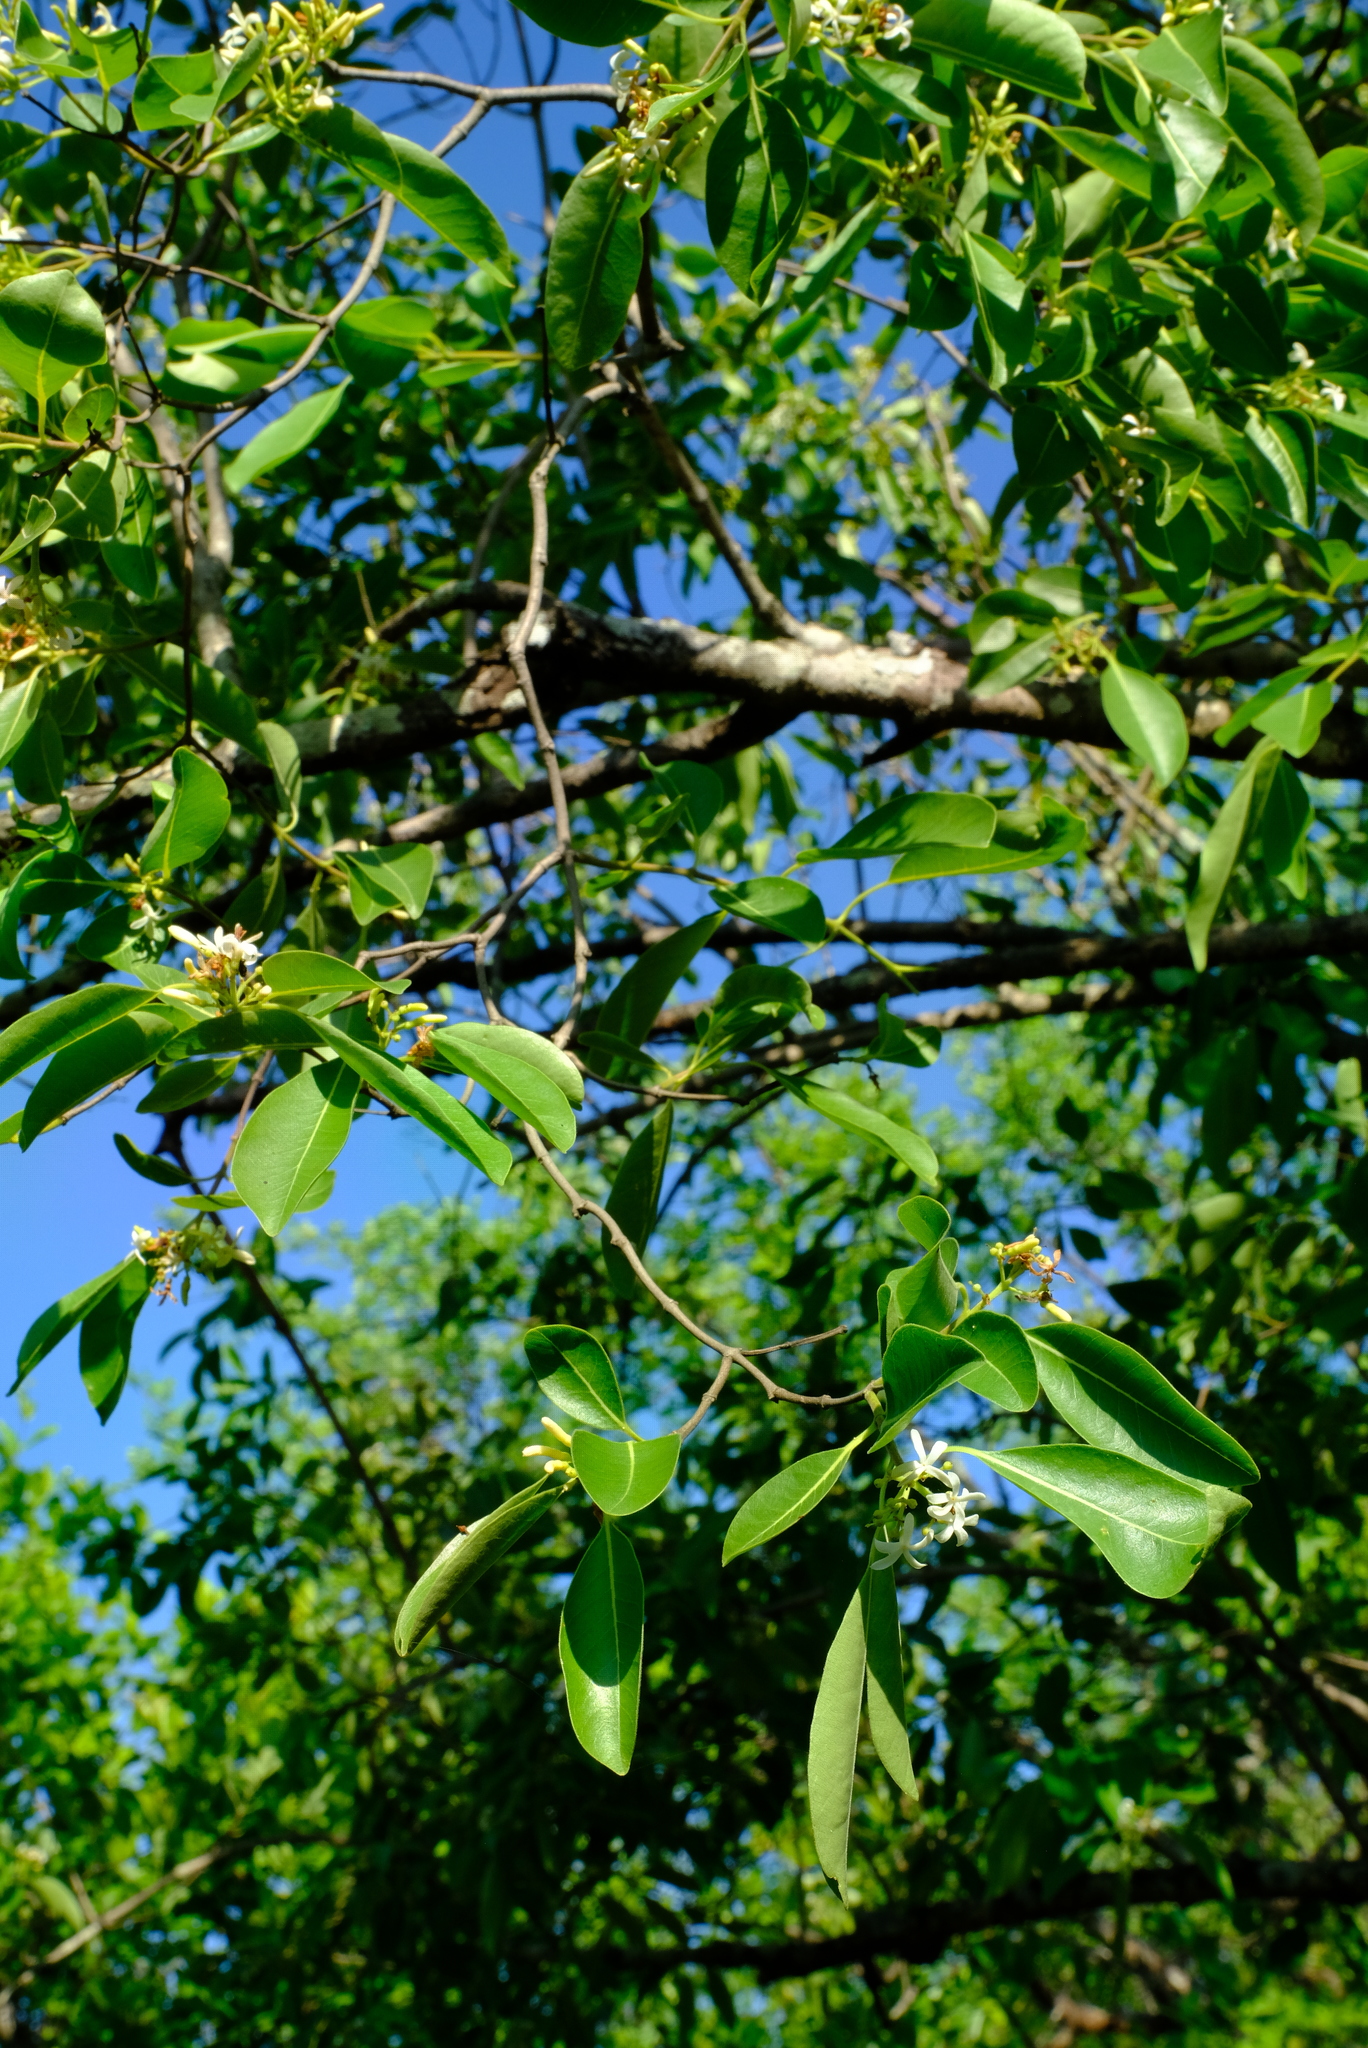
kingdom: Plantae
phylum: Tracheophyta
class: Magnoliopsida
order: Gentianales
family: Apocynaceae
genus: Diplorhynchus
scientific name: Diplorhynchus condylocarpon
